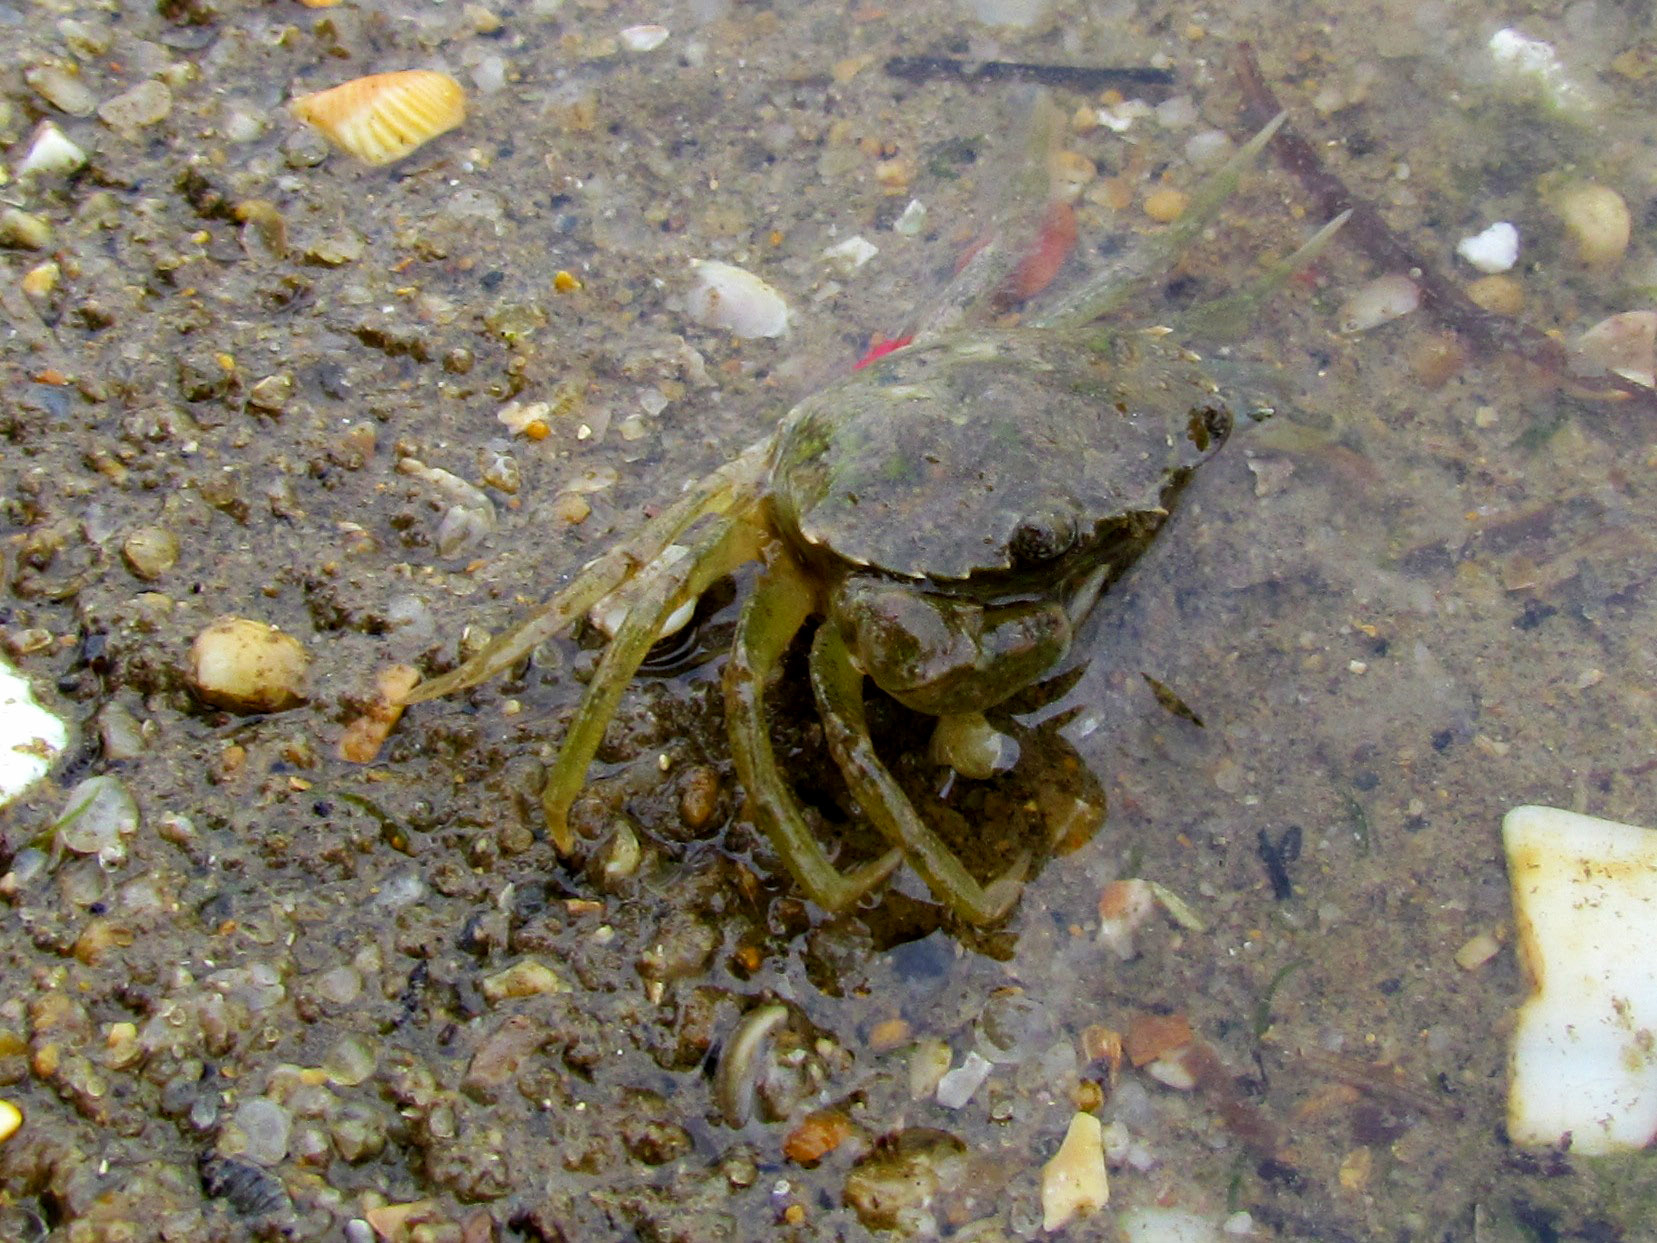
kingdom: Animalia
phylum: Arthropoda
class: Malacostraca
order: Decapoda
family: Carcinidae
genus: Carcinus
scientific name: Carcinus maenas
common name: European green crab
